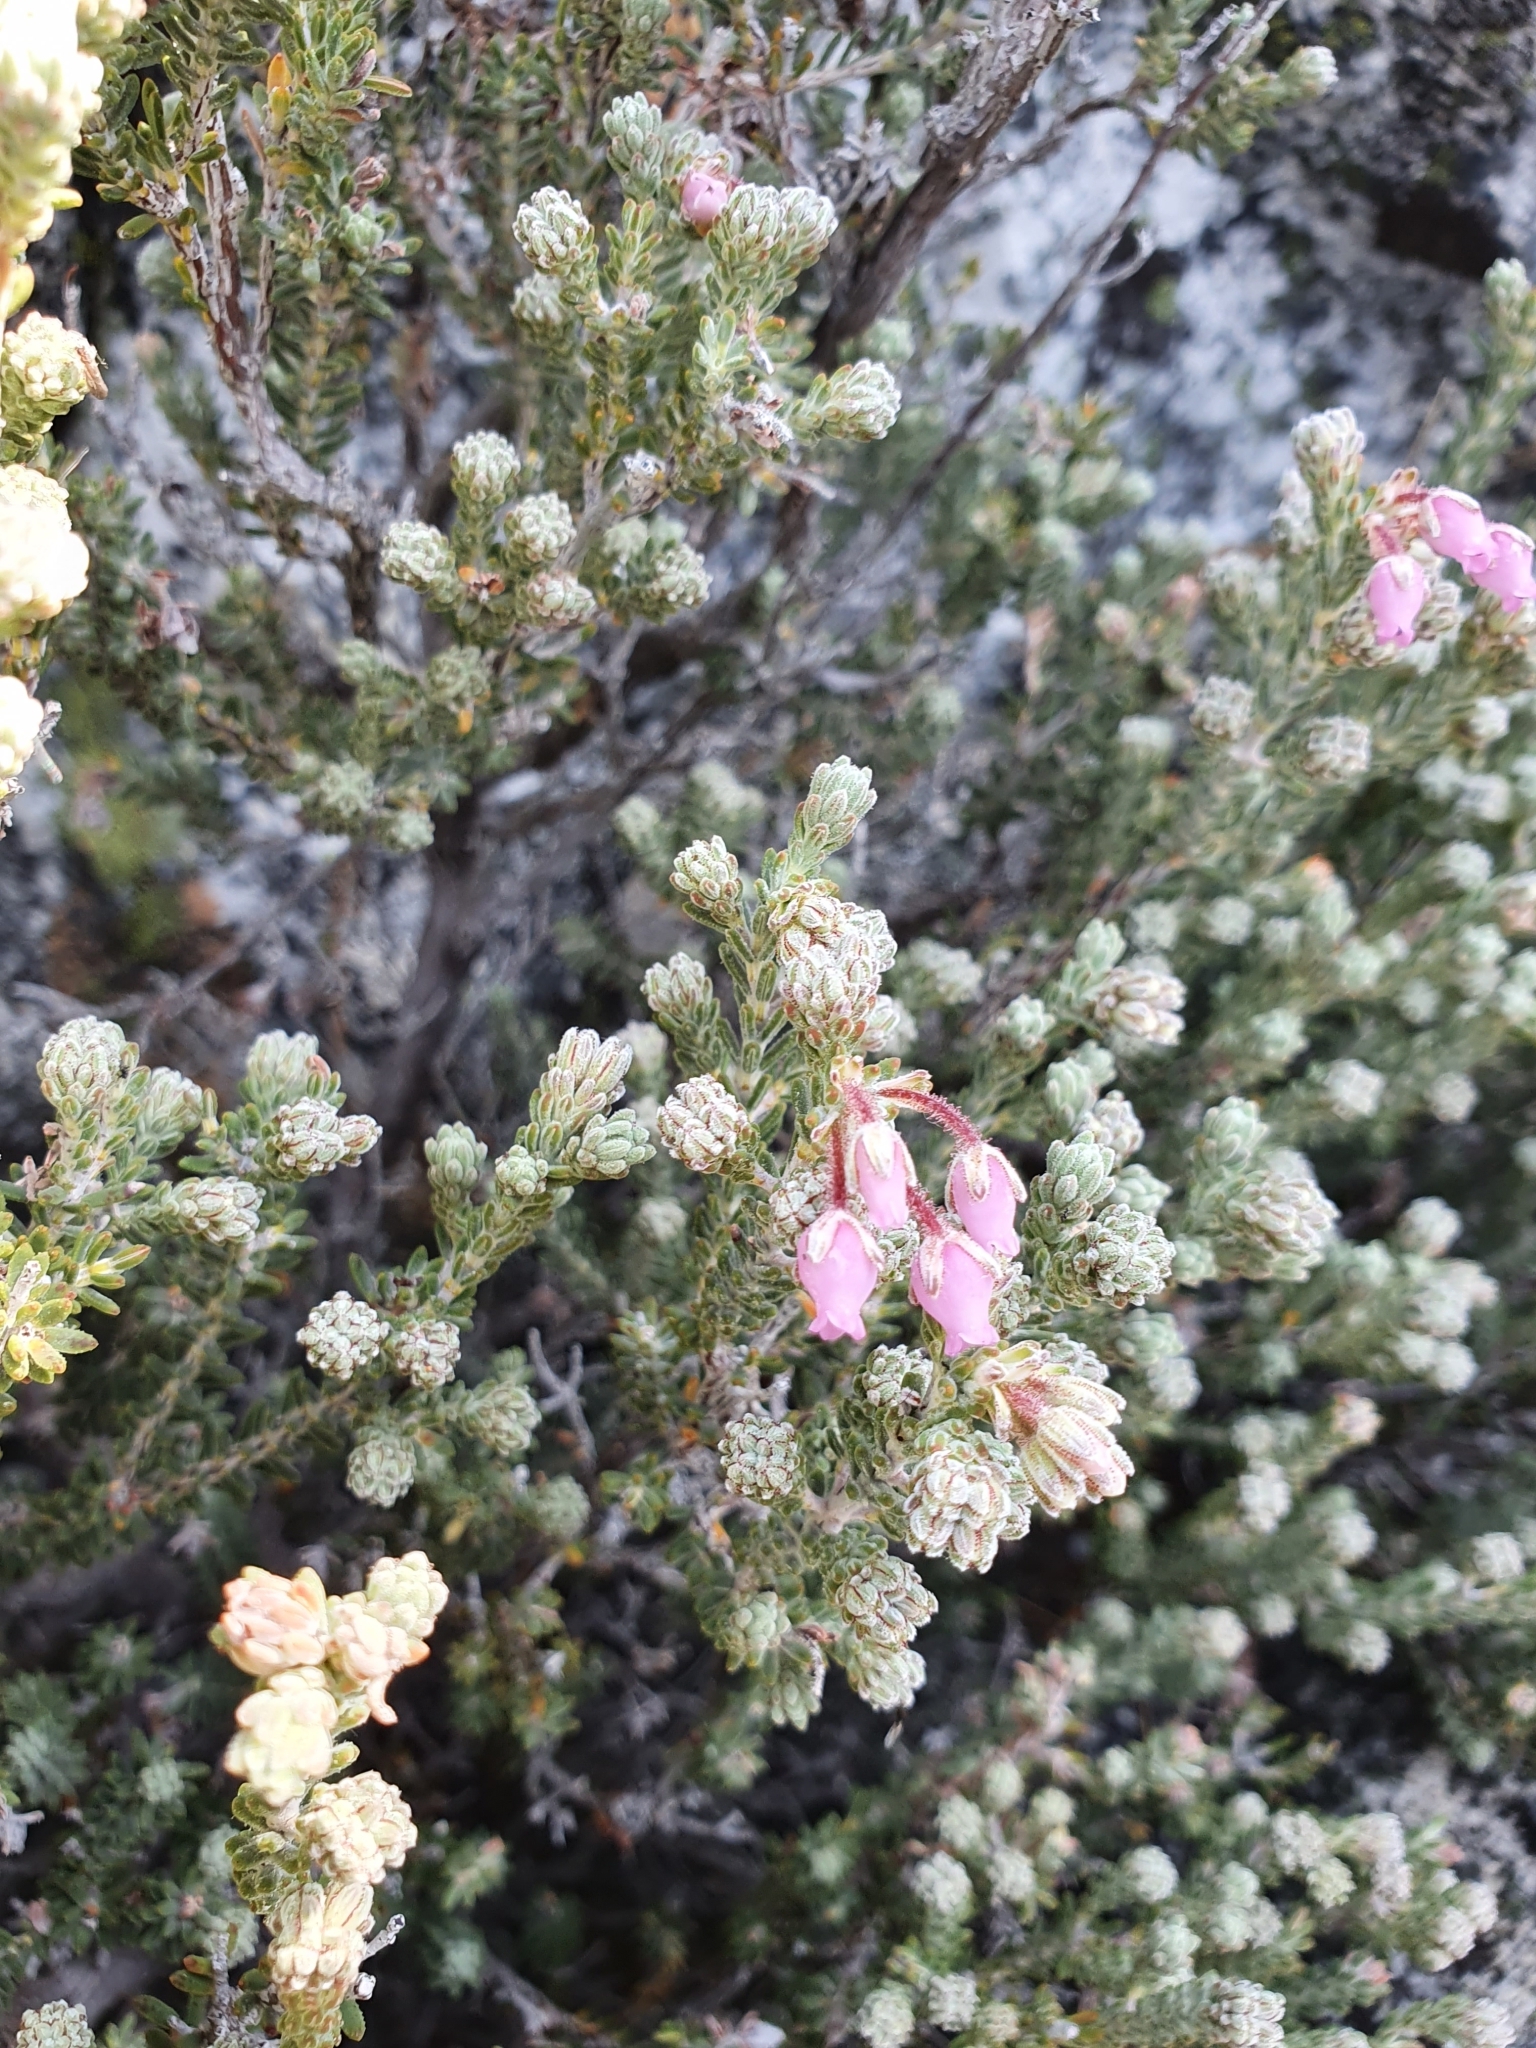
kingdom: Plantae
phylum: Tracheophyta
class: Magnoliopsida
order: Ericales
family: Ericaceae
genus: Erica
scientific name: Erica oresigena
